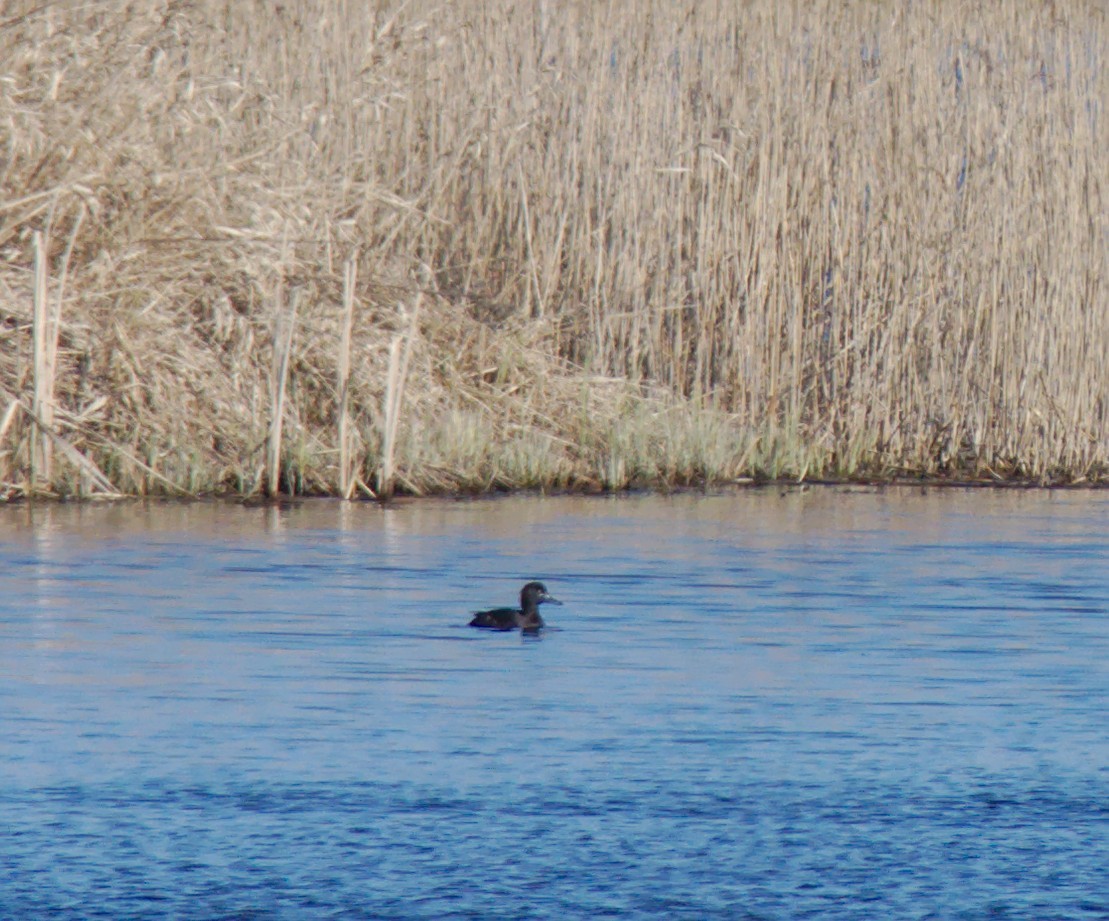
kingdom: Animalia
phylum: Chordata
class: Aves
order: Anseriformes
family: Anatidae
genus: Aythya
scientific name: Aythya fuligula
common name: Tufted duck
